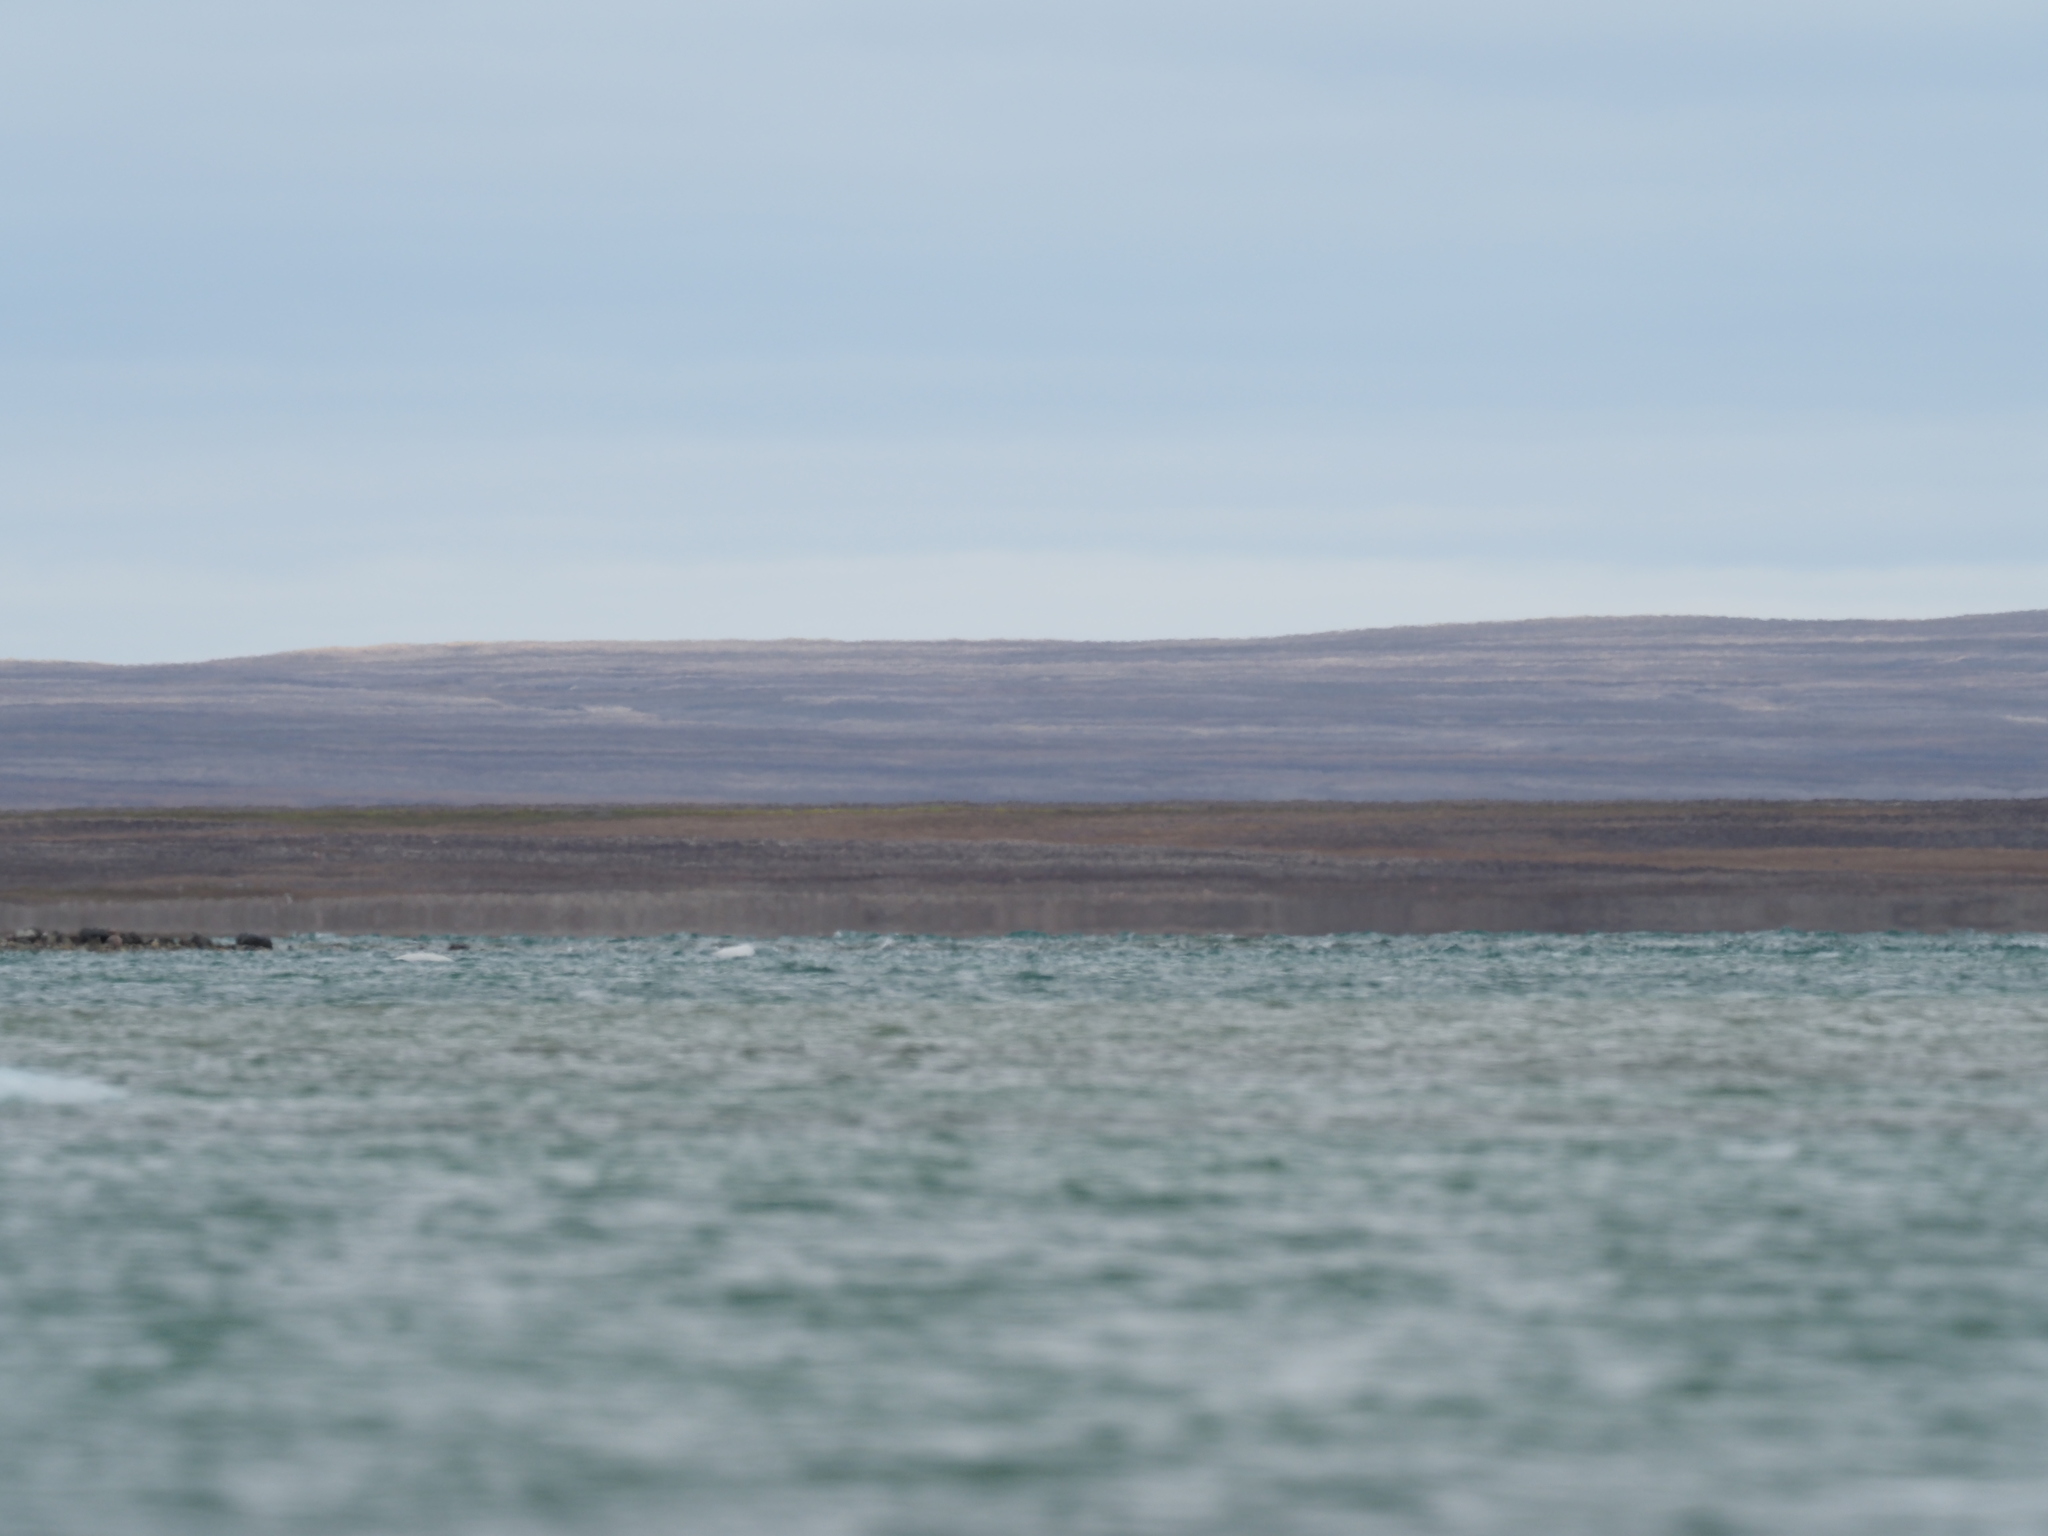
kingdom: Animalia
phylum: Chordata
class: Mammalia
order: Cetacea
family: Monodontidae
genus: Delphinapterus
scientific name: Delphinapterus leucas
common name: Beluga
